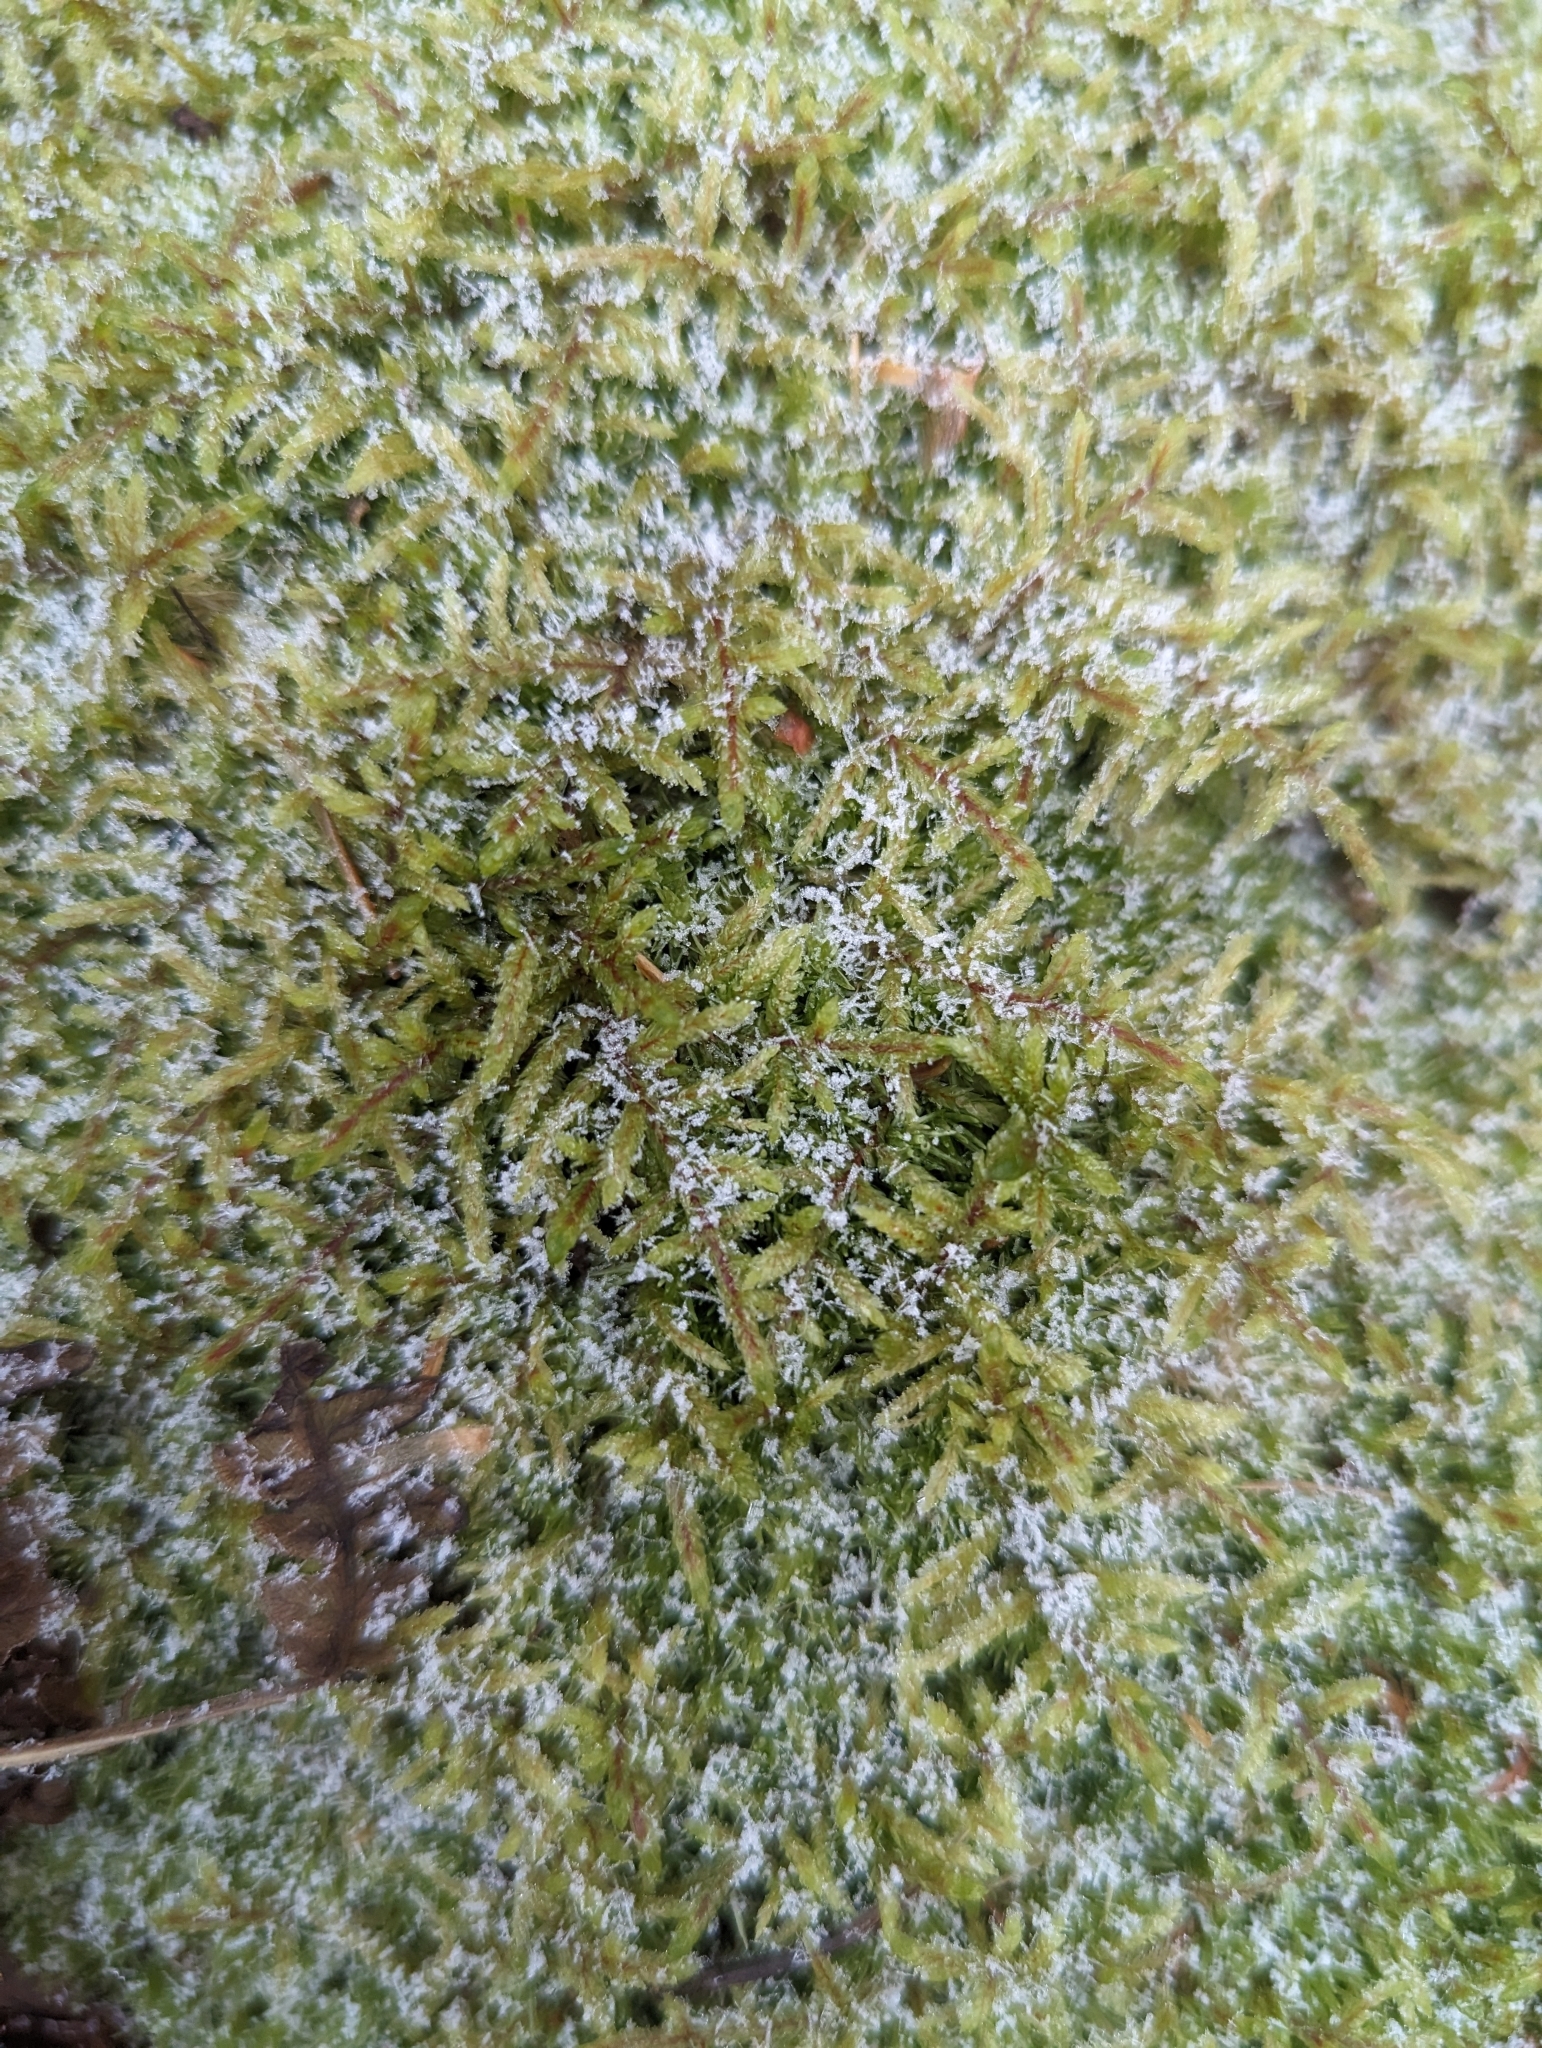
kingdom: Plantae
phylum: Bryophyta
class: Bryopsida
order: Hypnales
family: Hylocomiaceae
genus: Pleurozium
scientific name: Pleurozium schreberi
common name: Red-stemmed feather moss
